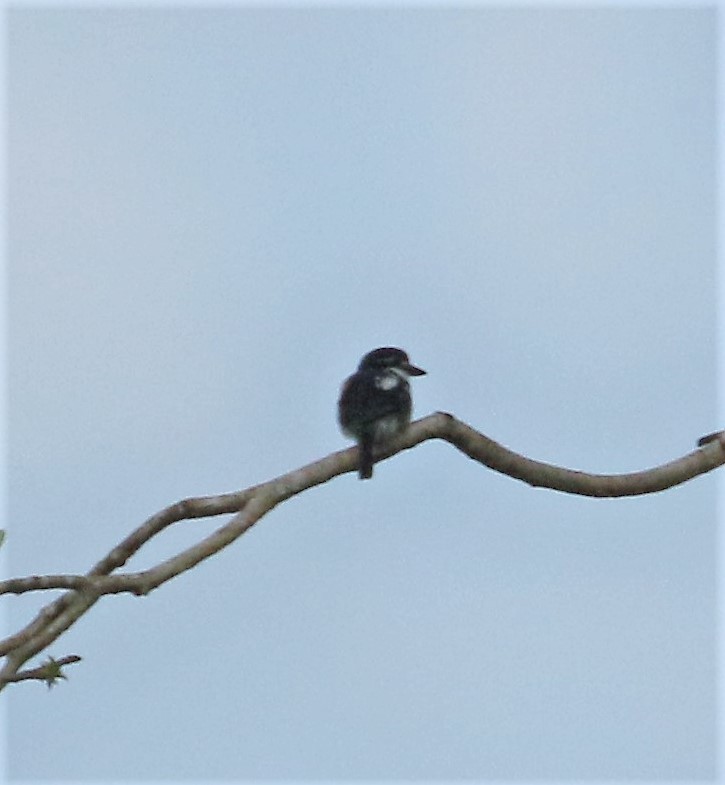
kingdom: Animalia
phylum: Chordata
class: Aves
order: Piciformes
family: Bucconidae
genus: Notharchus
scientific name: Notharchus tectus
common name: Pied puffbird
